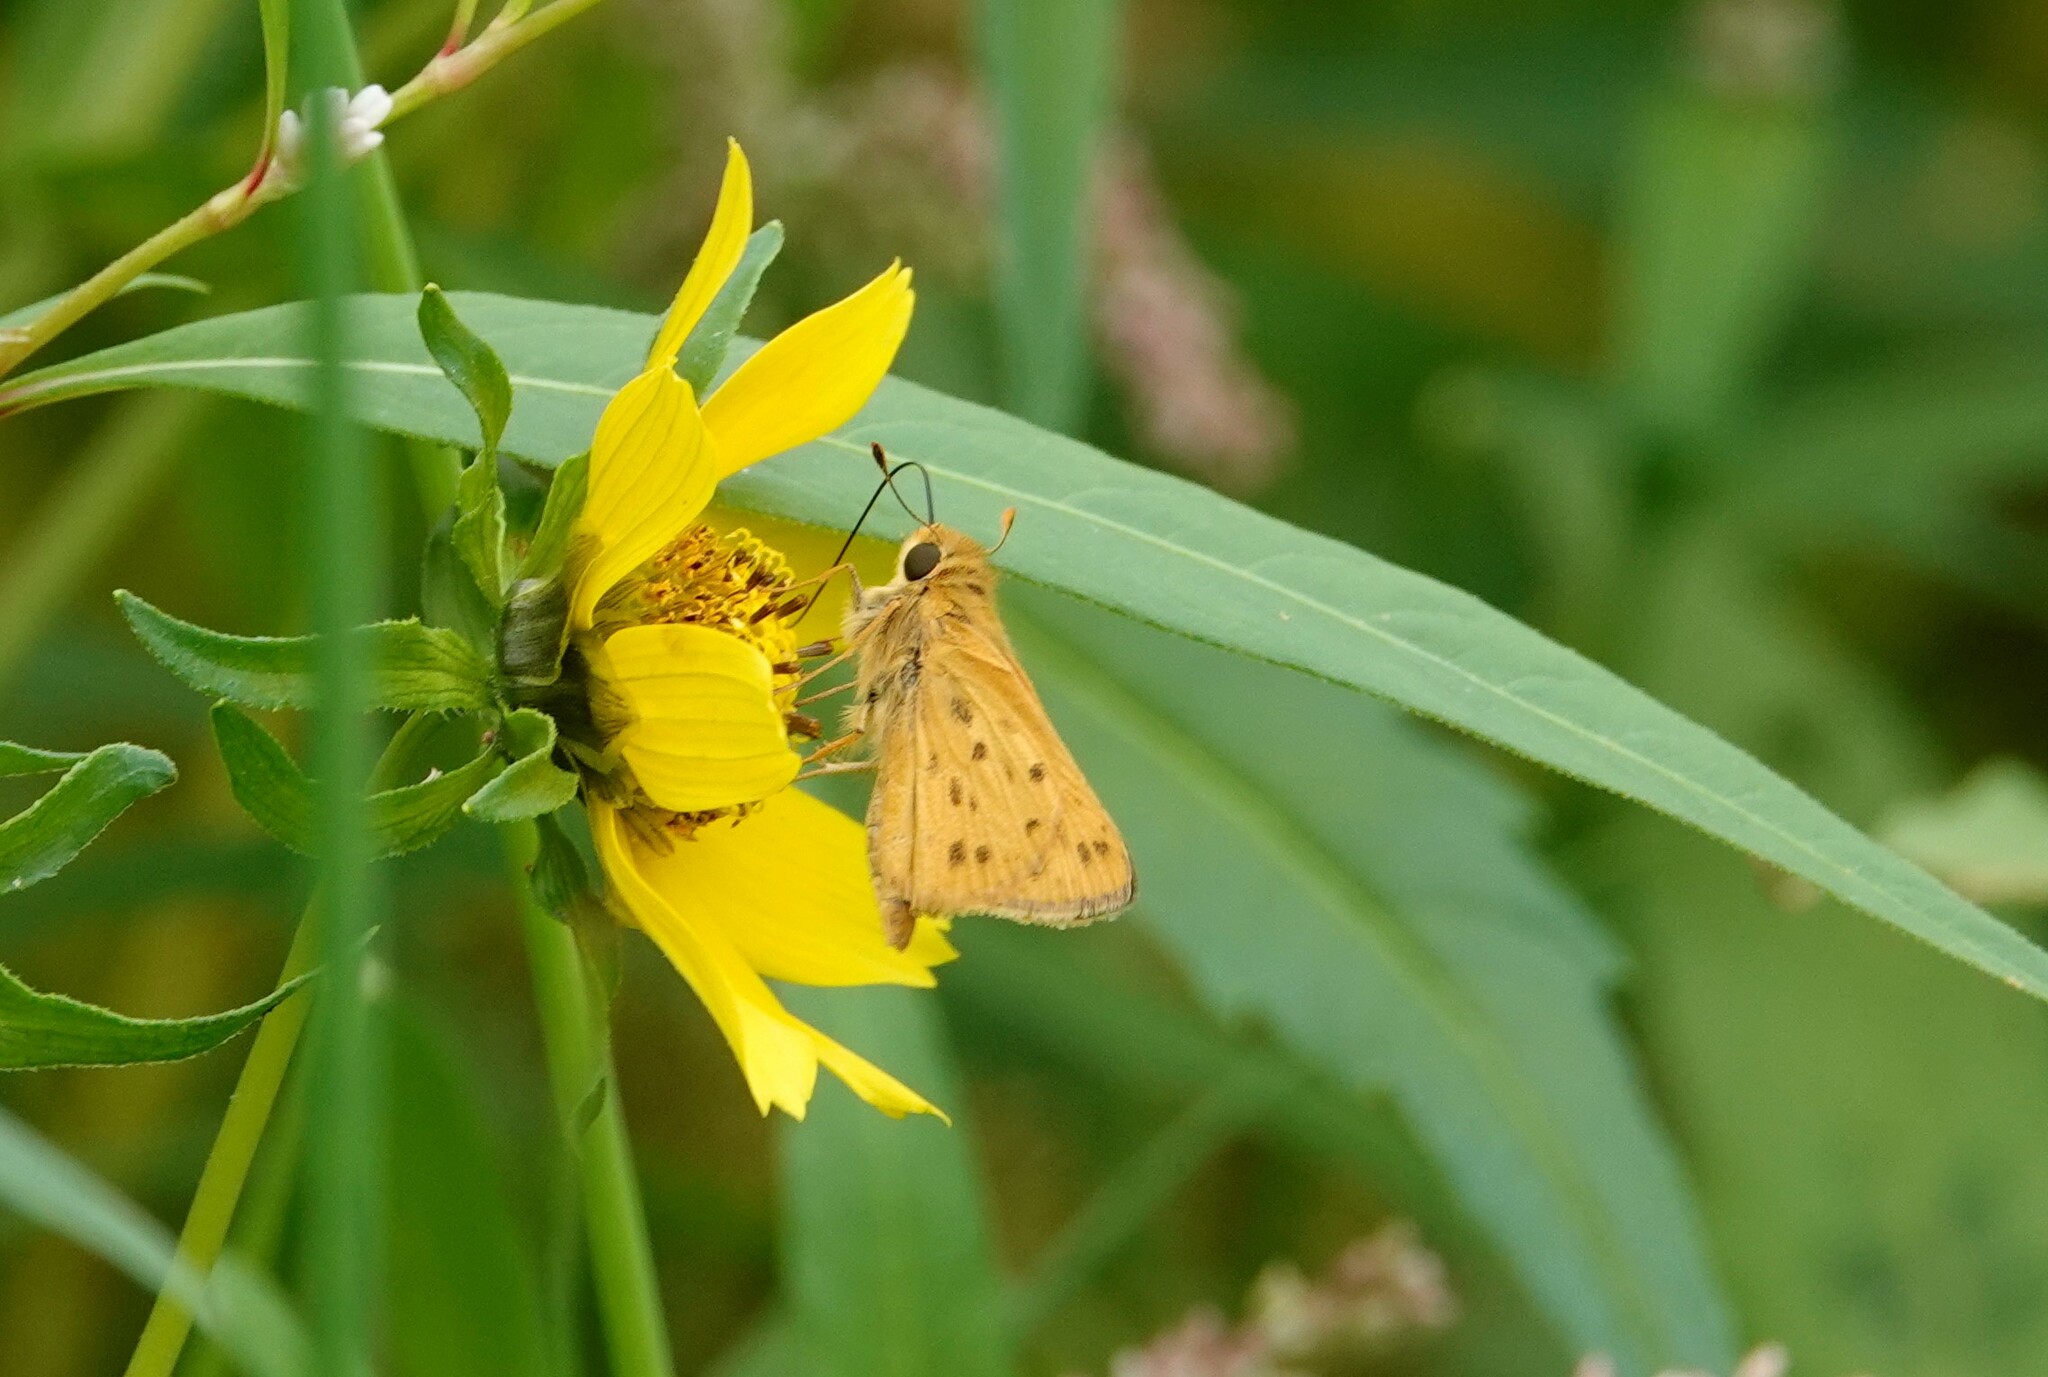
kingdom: Animalia
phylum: Arthropoda
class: Insecta
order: Lepidoptera
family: Hesperiidae
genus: Hylephila
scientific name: Hylephila phyleus
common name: Fiery skipper
